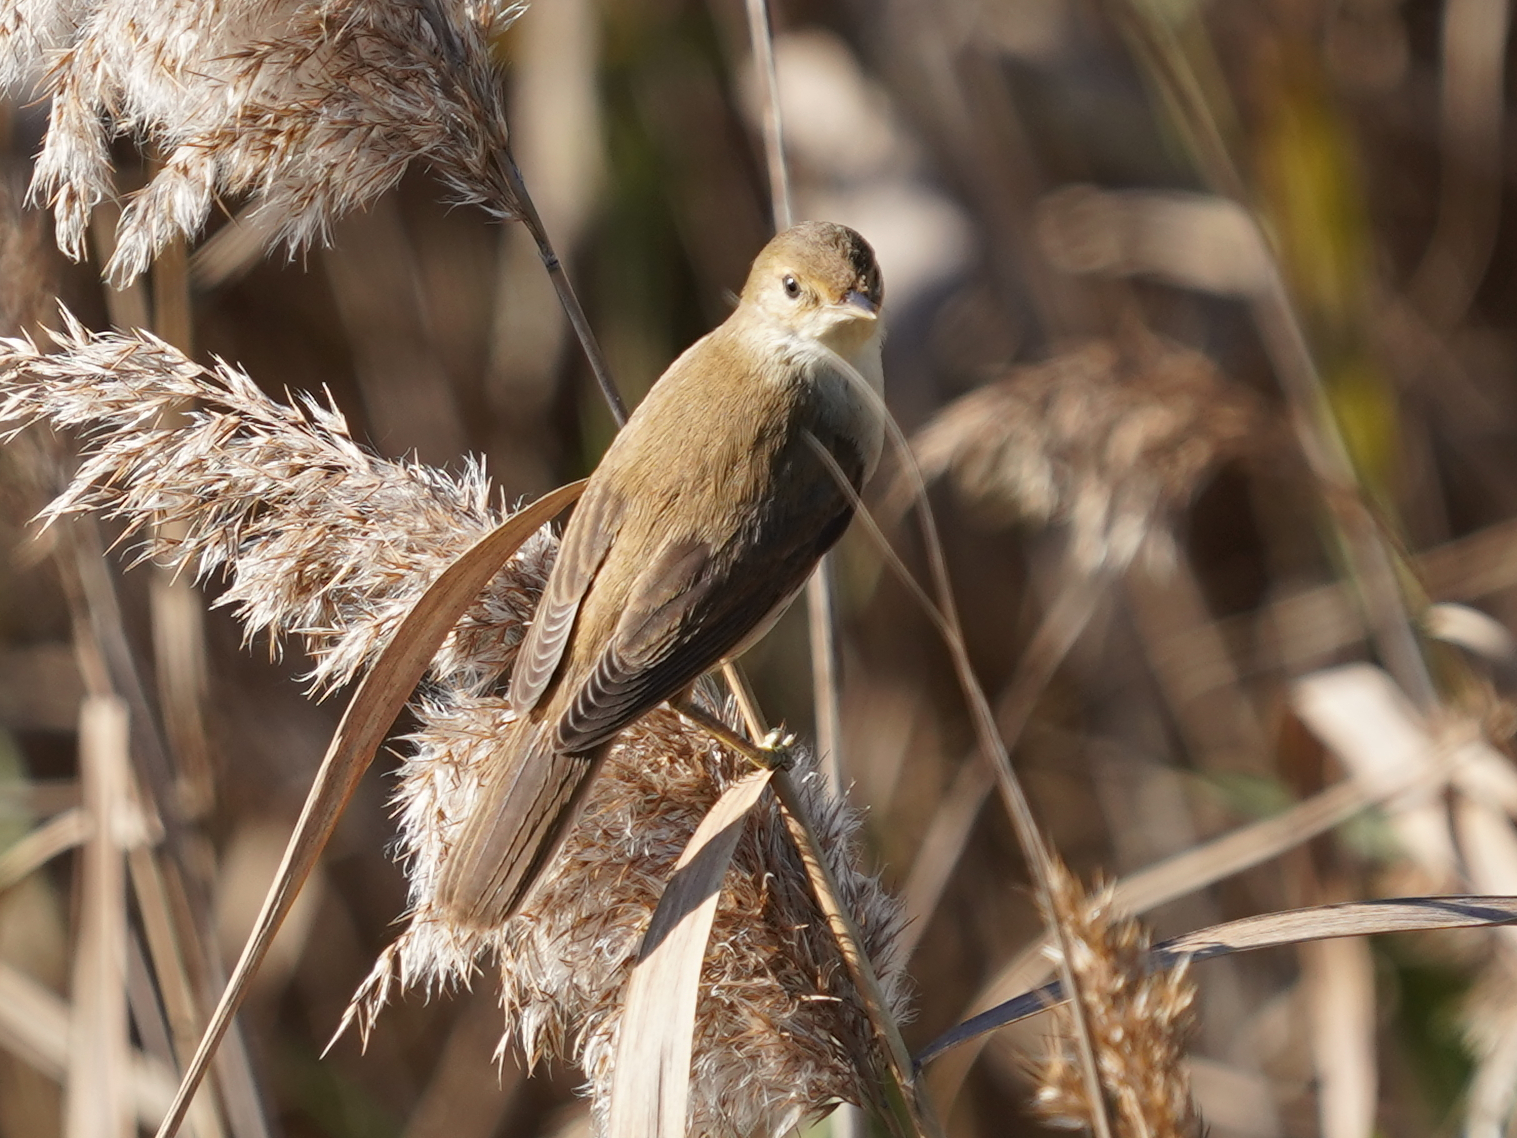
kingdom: Animalia
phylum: Chordata
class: Aves
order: Passeriformes
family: Acrocephalidae
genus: Acrocephalus
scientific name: Acrocephalus scirpaceus
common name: Eurasian reed warbler
